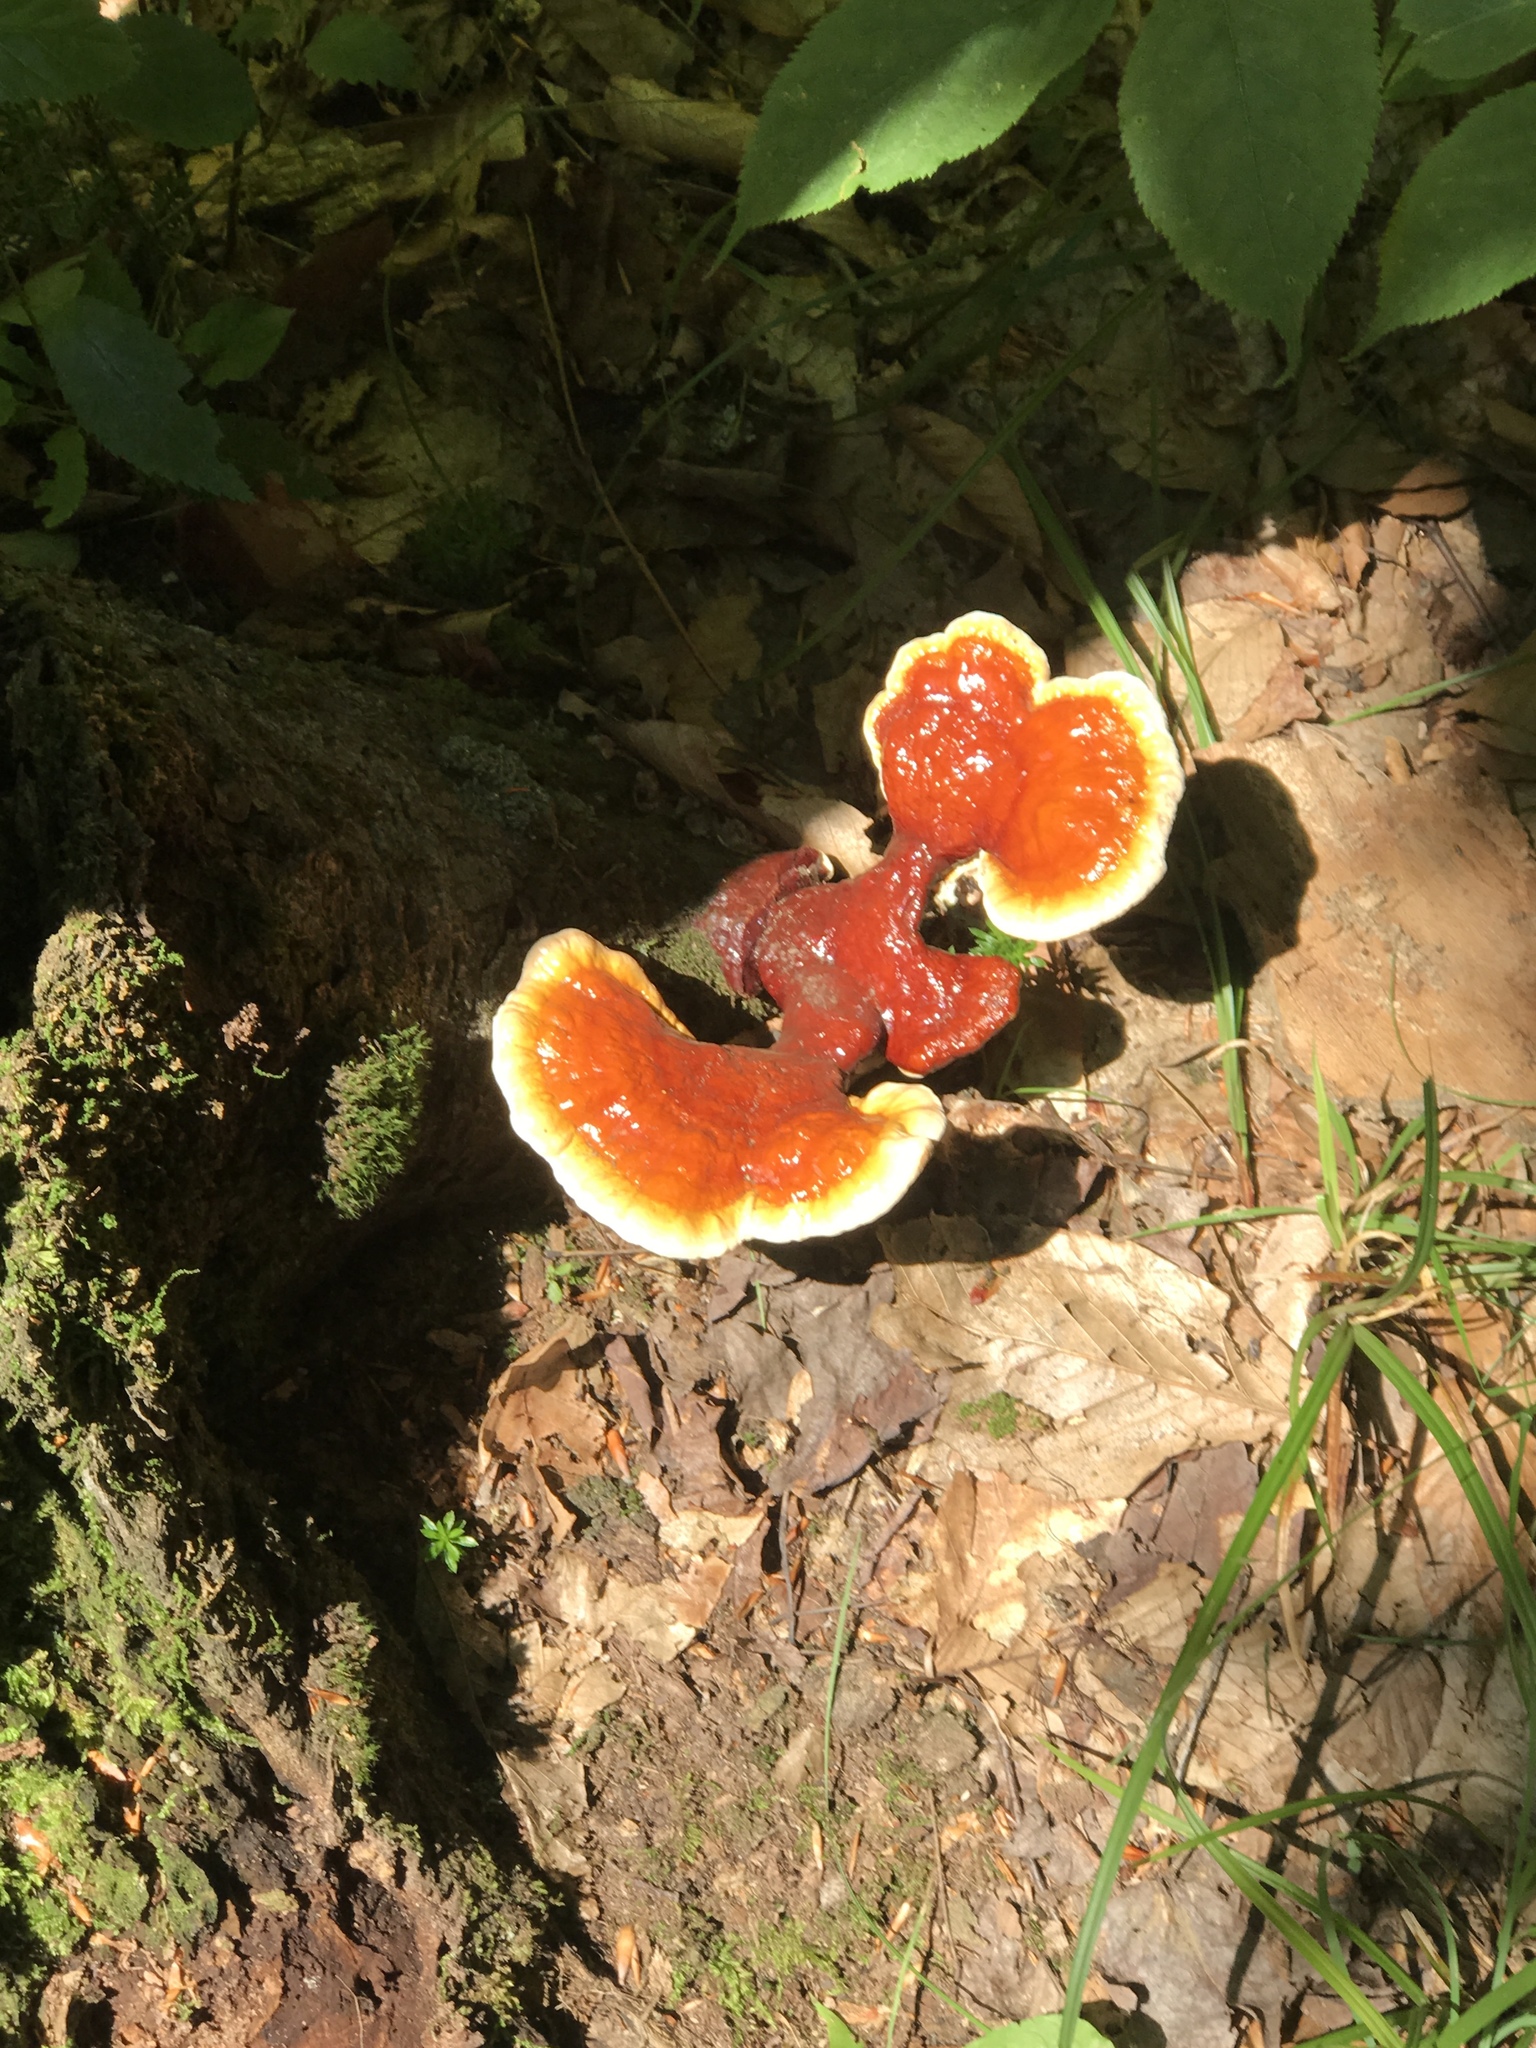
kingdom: Fungi
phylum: Basidiomycota
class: Agaricomycetes
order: Polyporales
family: Polyporaceae
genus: Ganoderma
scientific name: Ganoderma tsugae
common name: Hemlock varnish shelf
